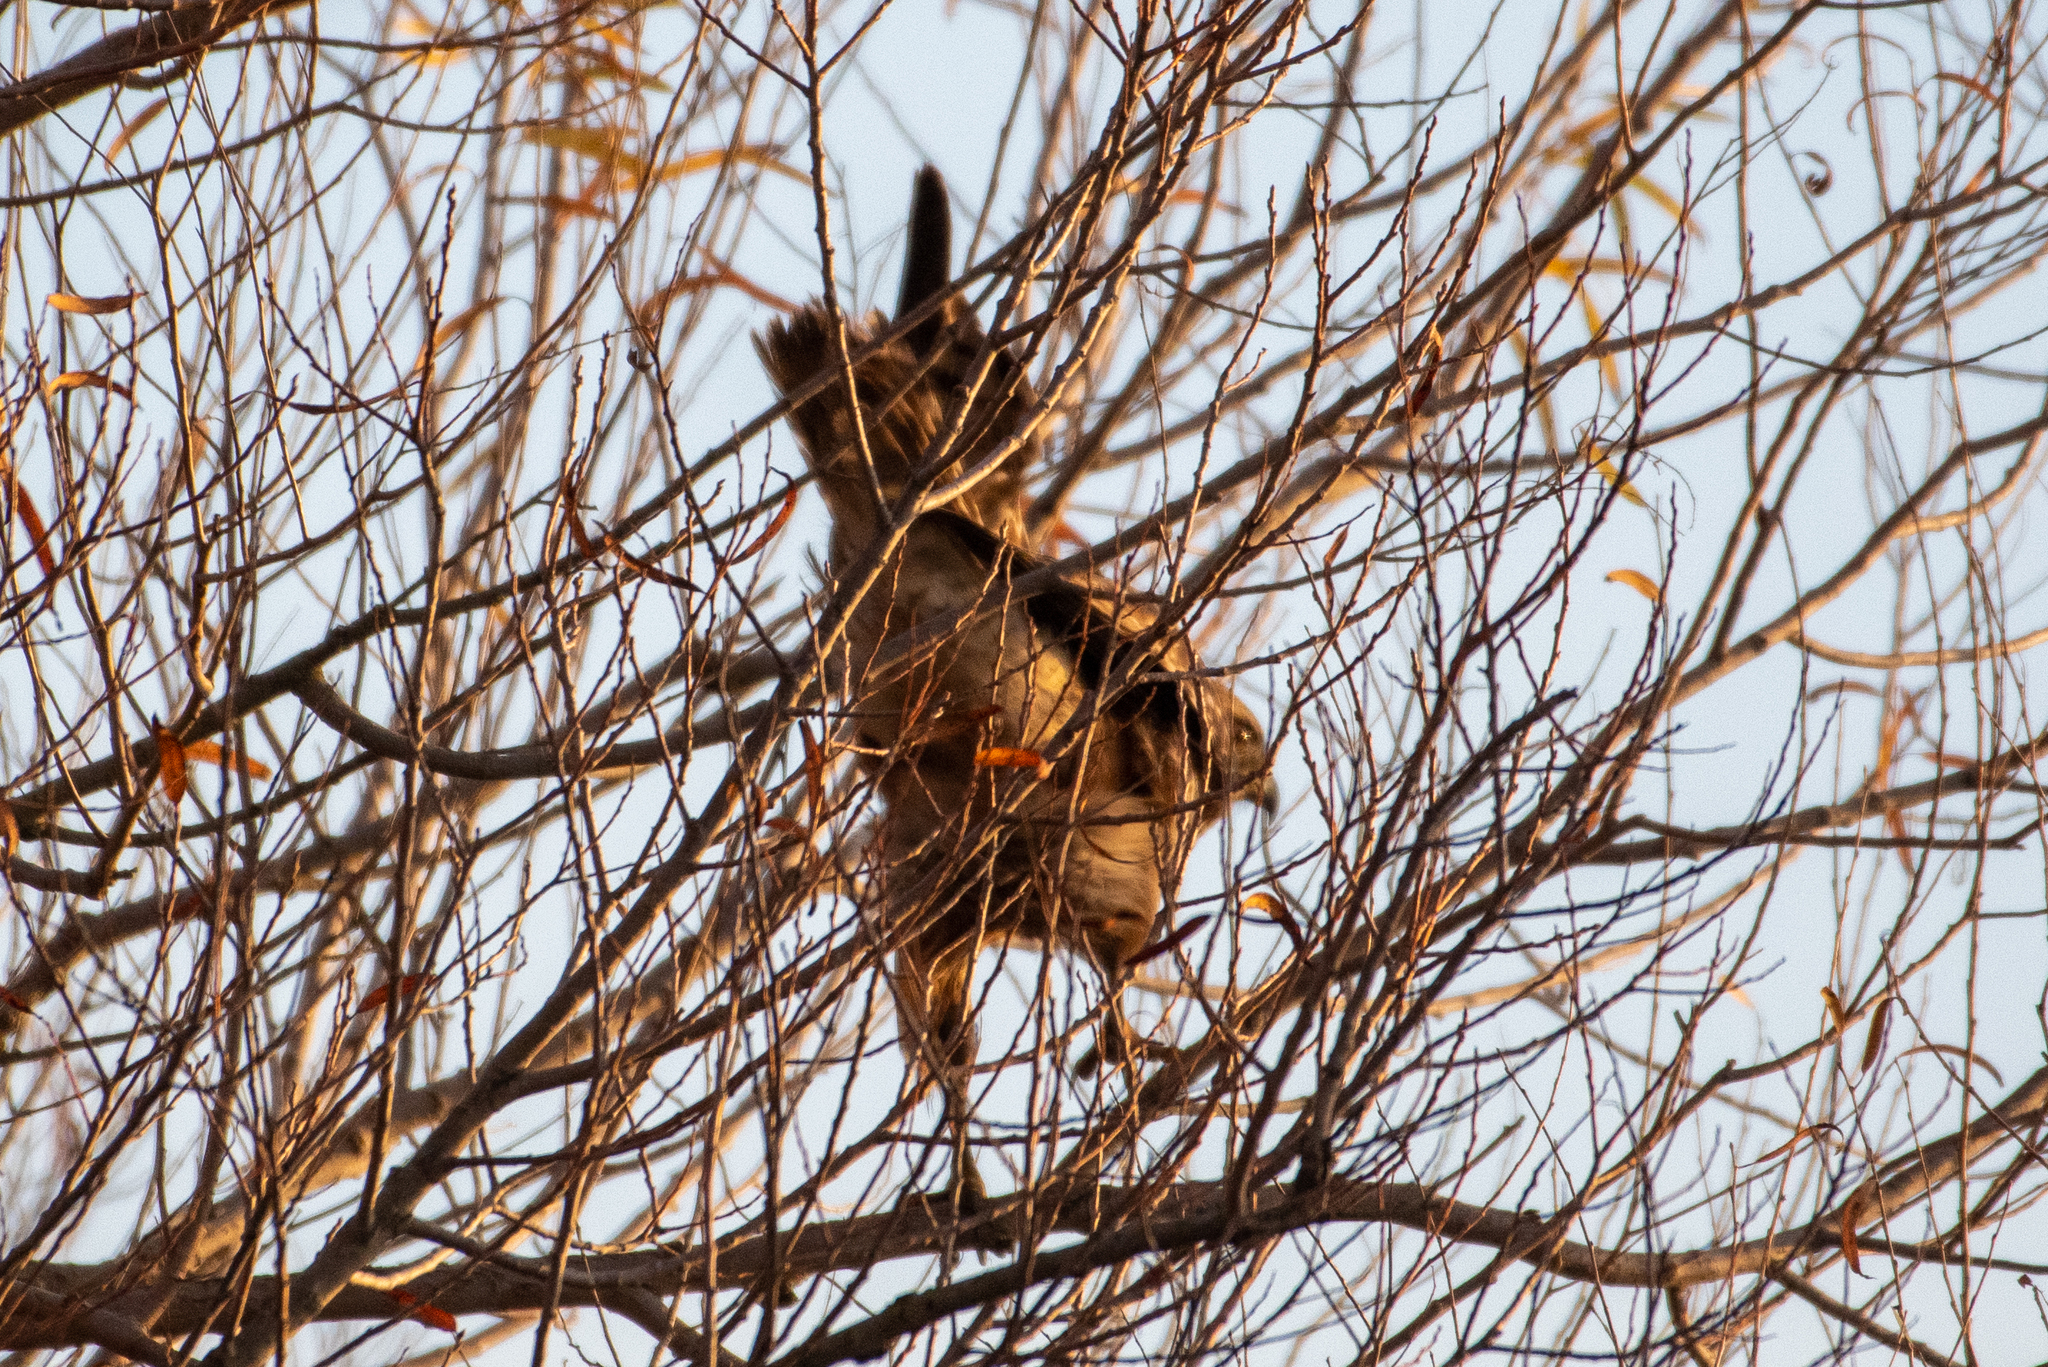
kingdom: Animalia
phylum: Chordata
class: Aves
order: Accipitriformes
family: Accipitridae
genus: Buteo
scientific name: Buteo lineatus
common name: Red-shouldered hawk
